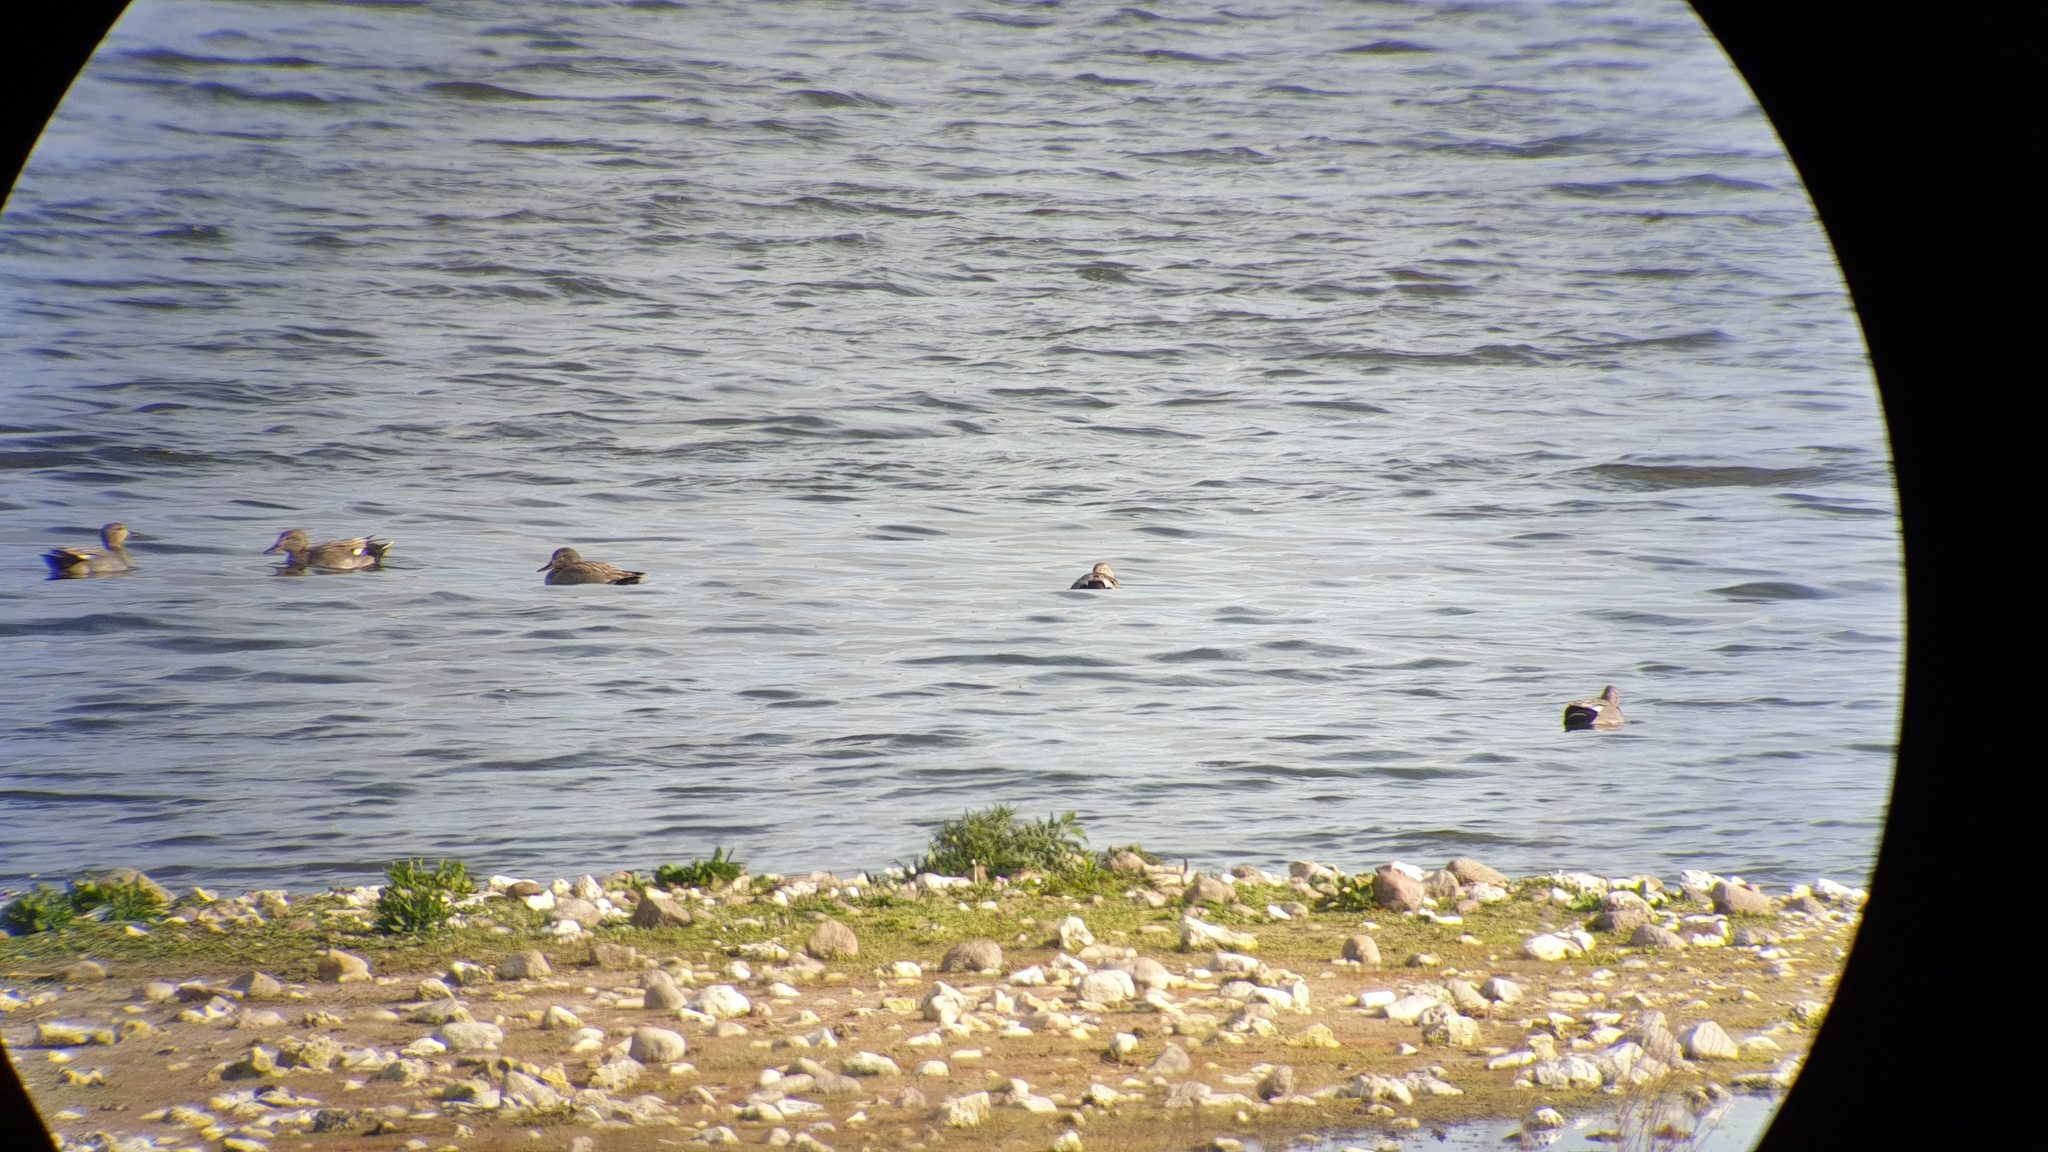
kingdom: Animalia
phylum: Chordata
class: Aves
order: Anseriformes
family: Anatidae
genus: Mareca
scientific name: Mareca strepera
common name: Gadwall
